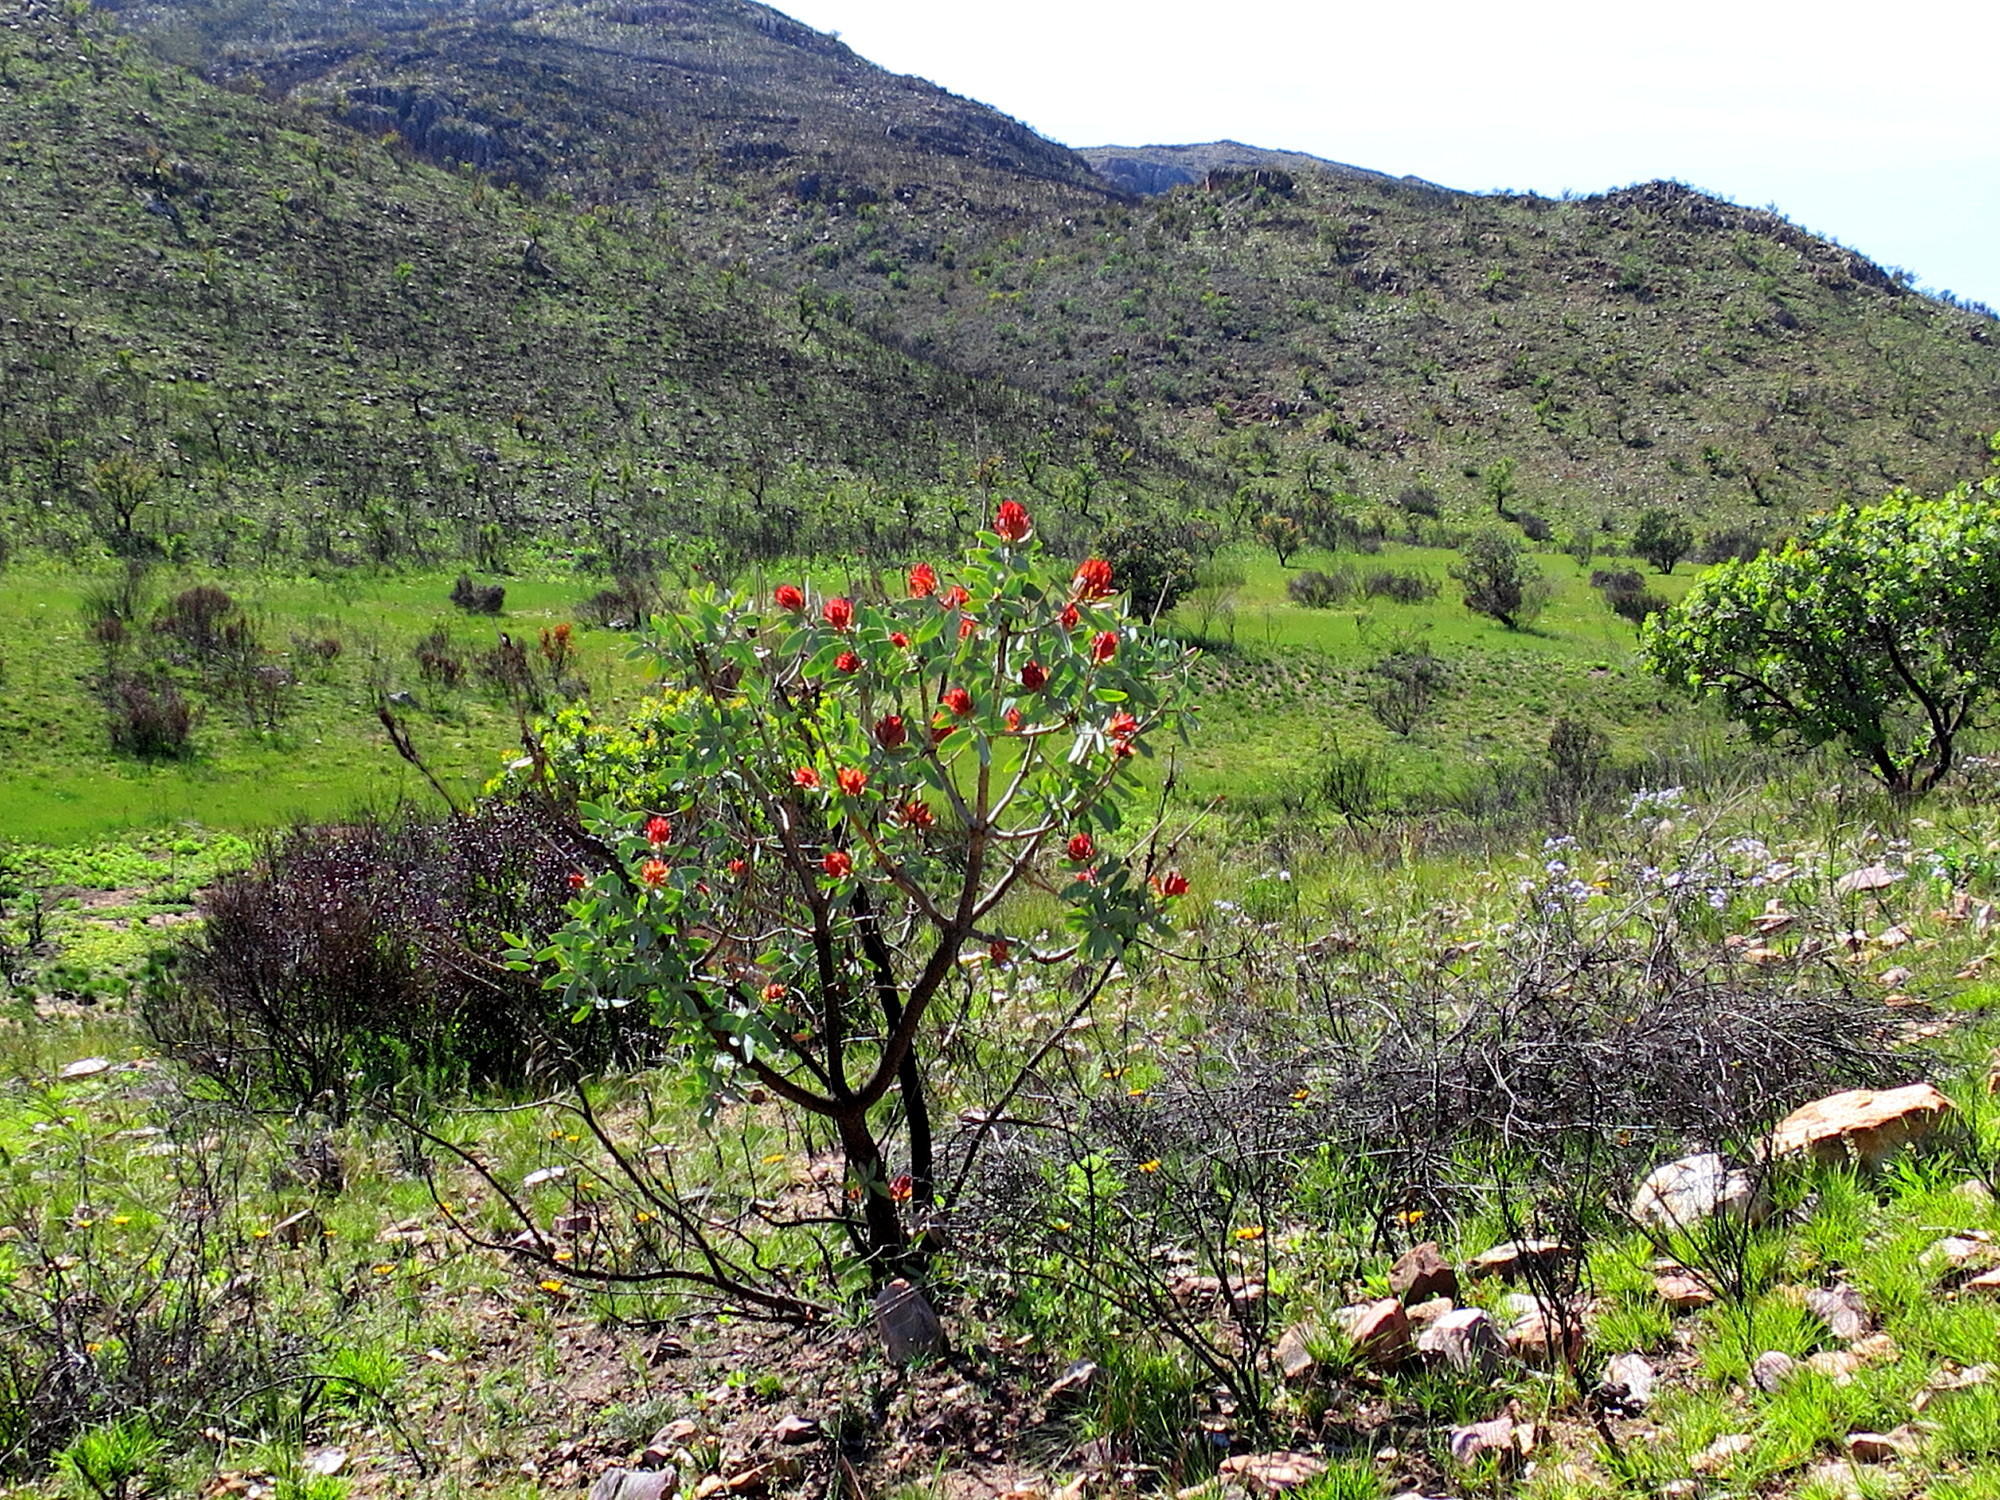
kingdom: Plantae
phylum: Tracheophyta
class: Magnoliopsida
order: Proteales
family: Proteaceae
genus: Protea
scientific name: Protea nitida
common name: Tree protea
